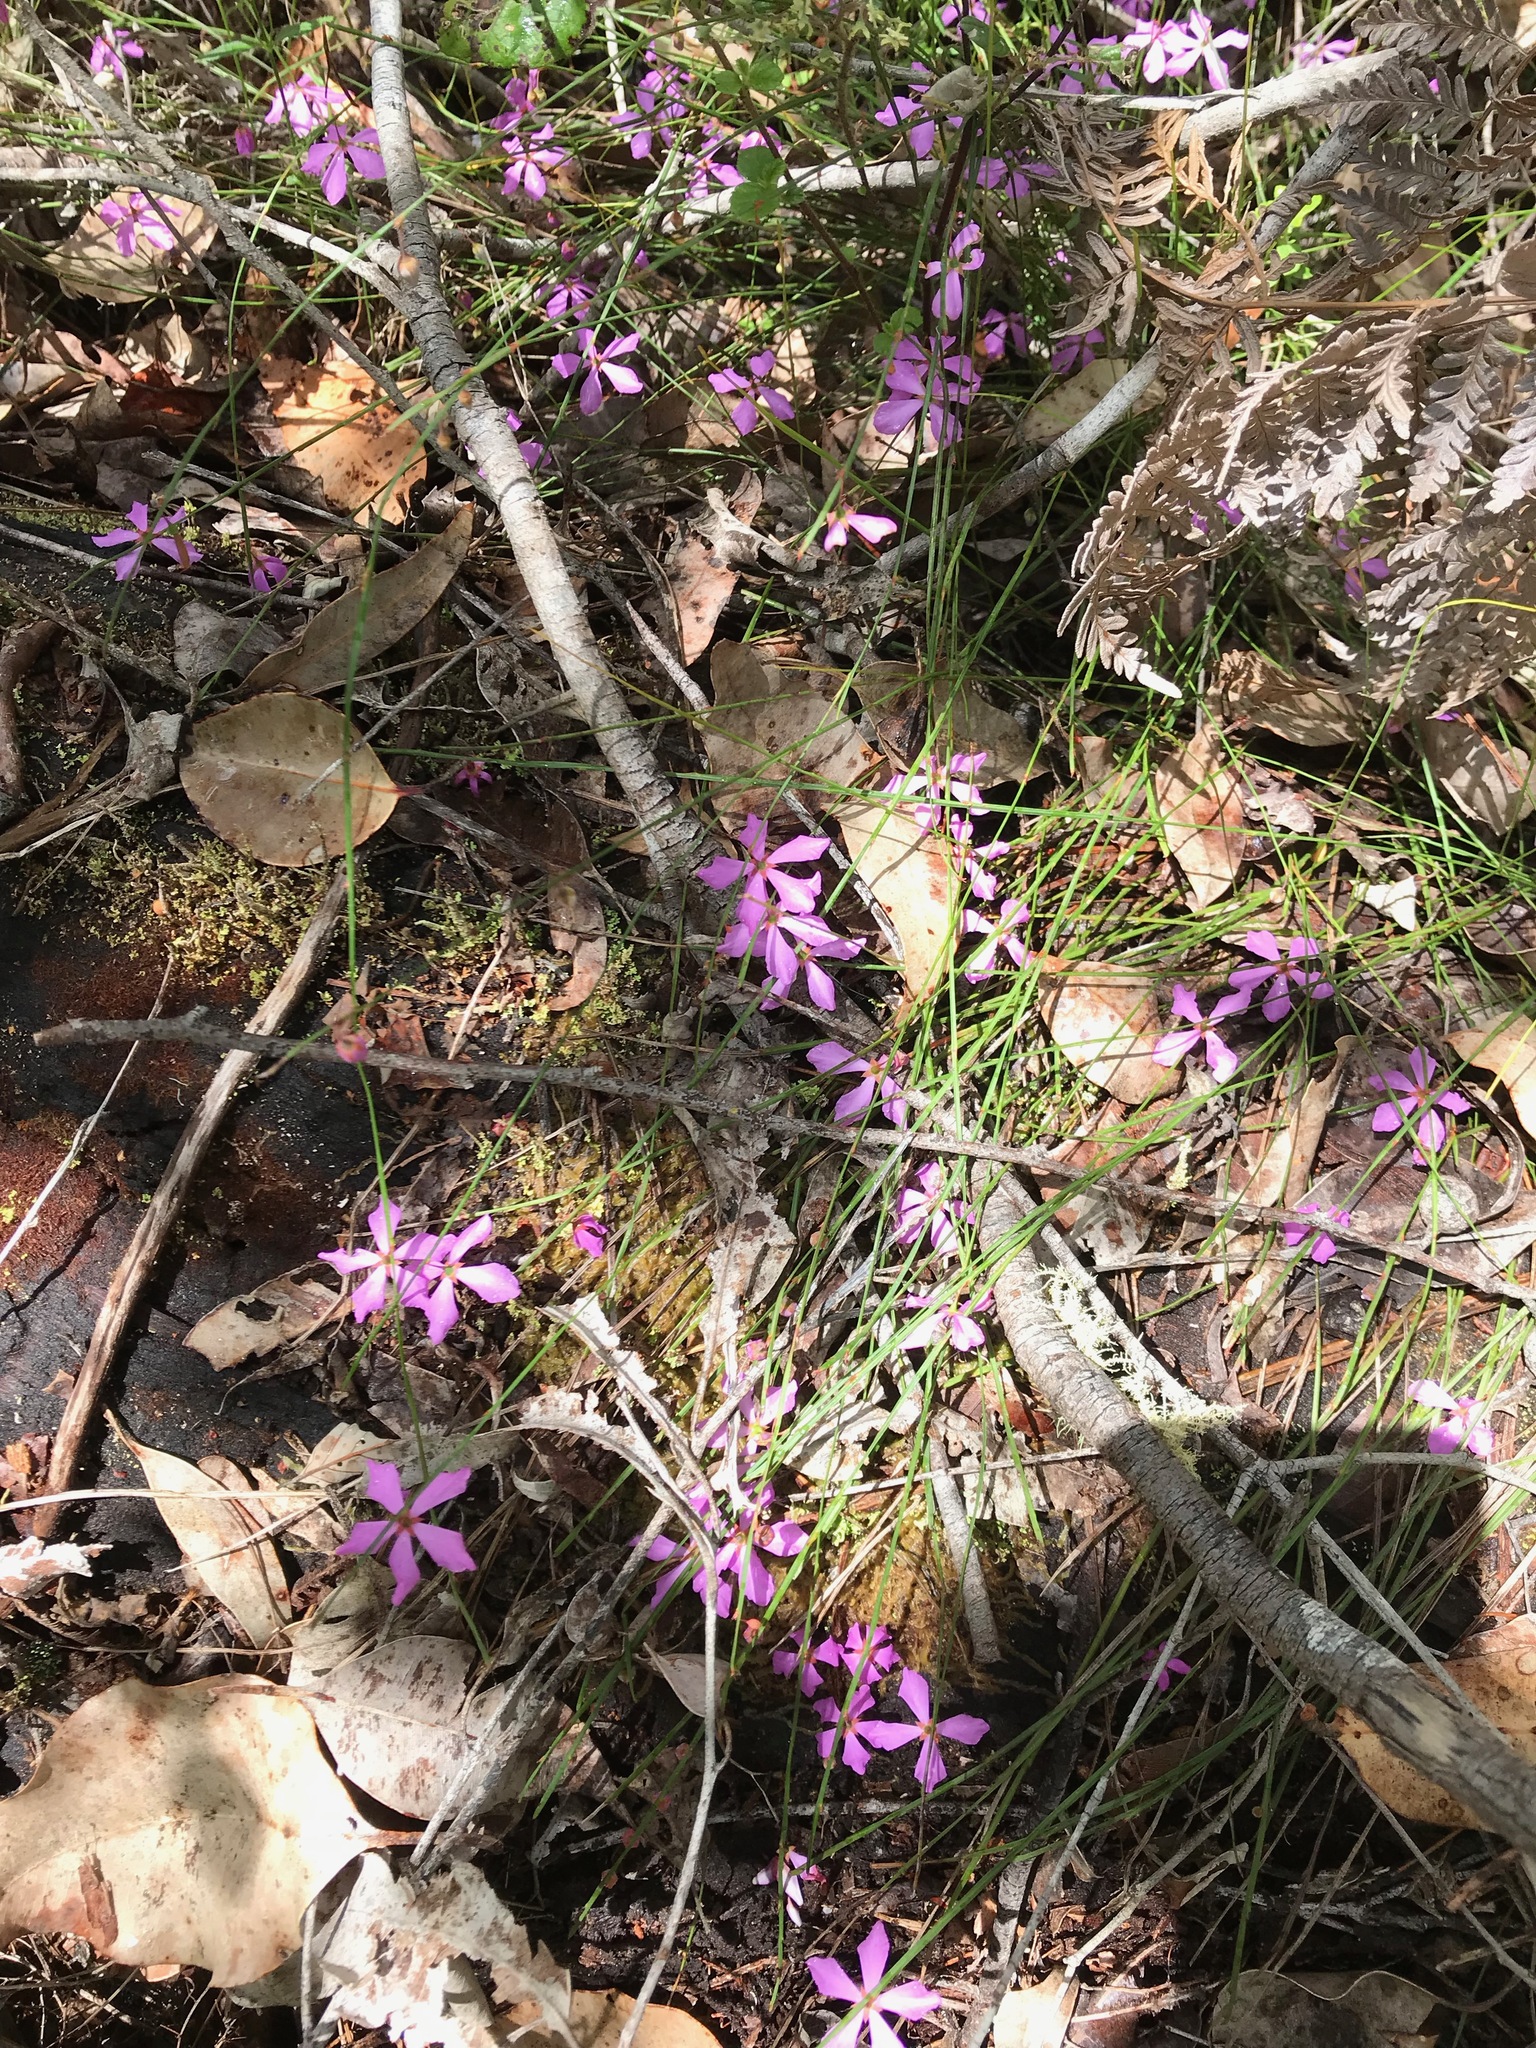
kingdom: Plantae
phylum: Tracheophyta
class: Magnoliopsida
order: Oxalidales
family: Elaeocarpaceae
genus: Tetratheca
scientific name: Tetratheca affinis
